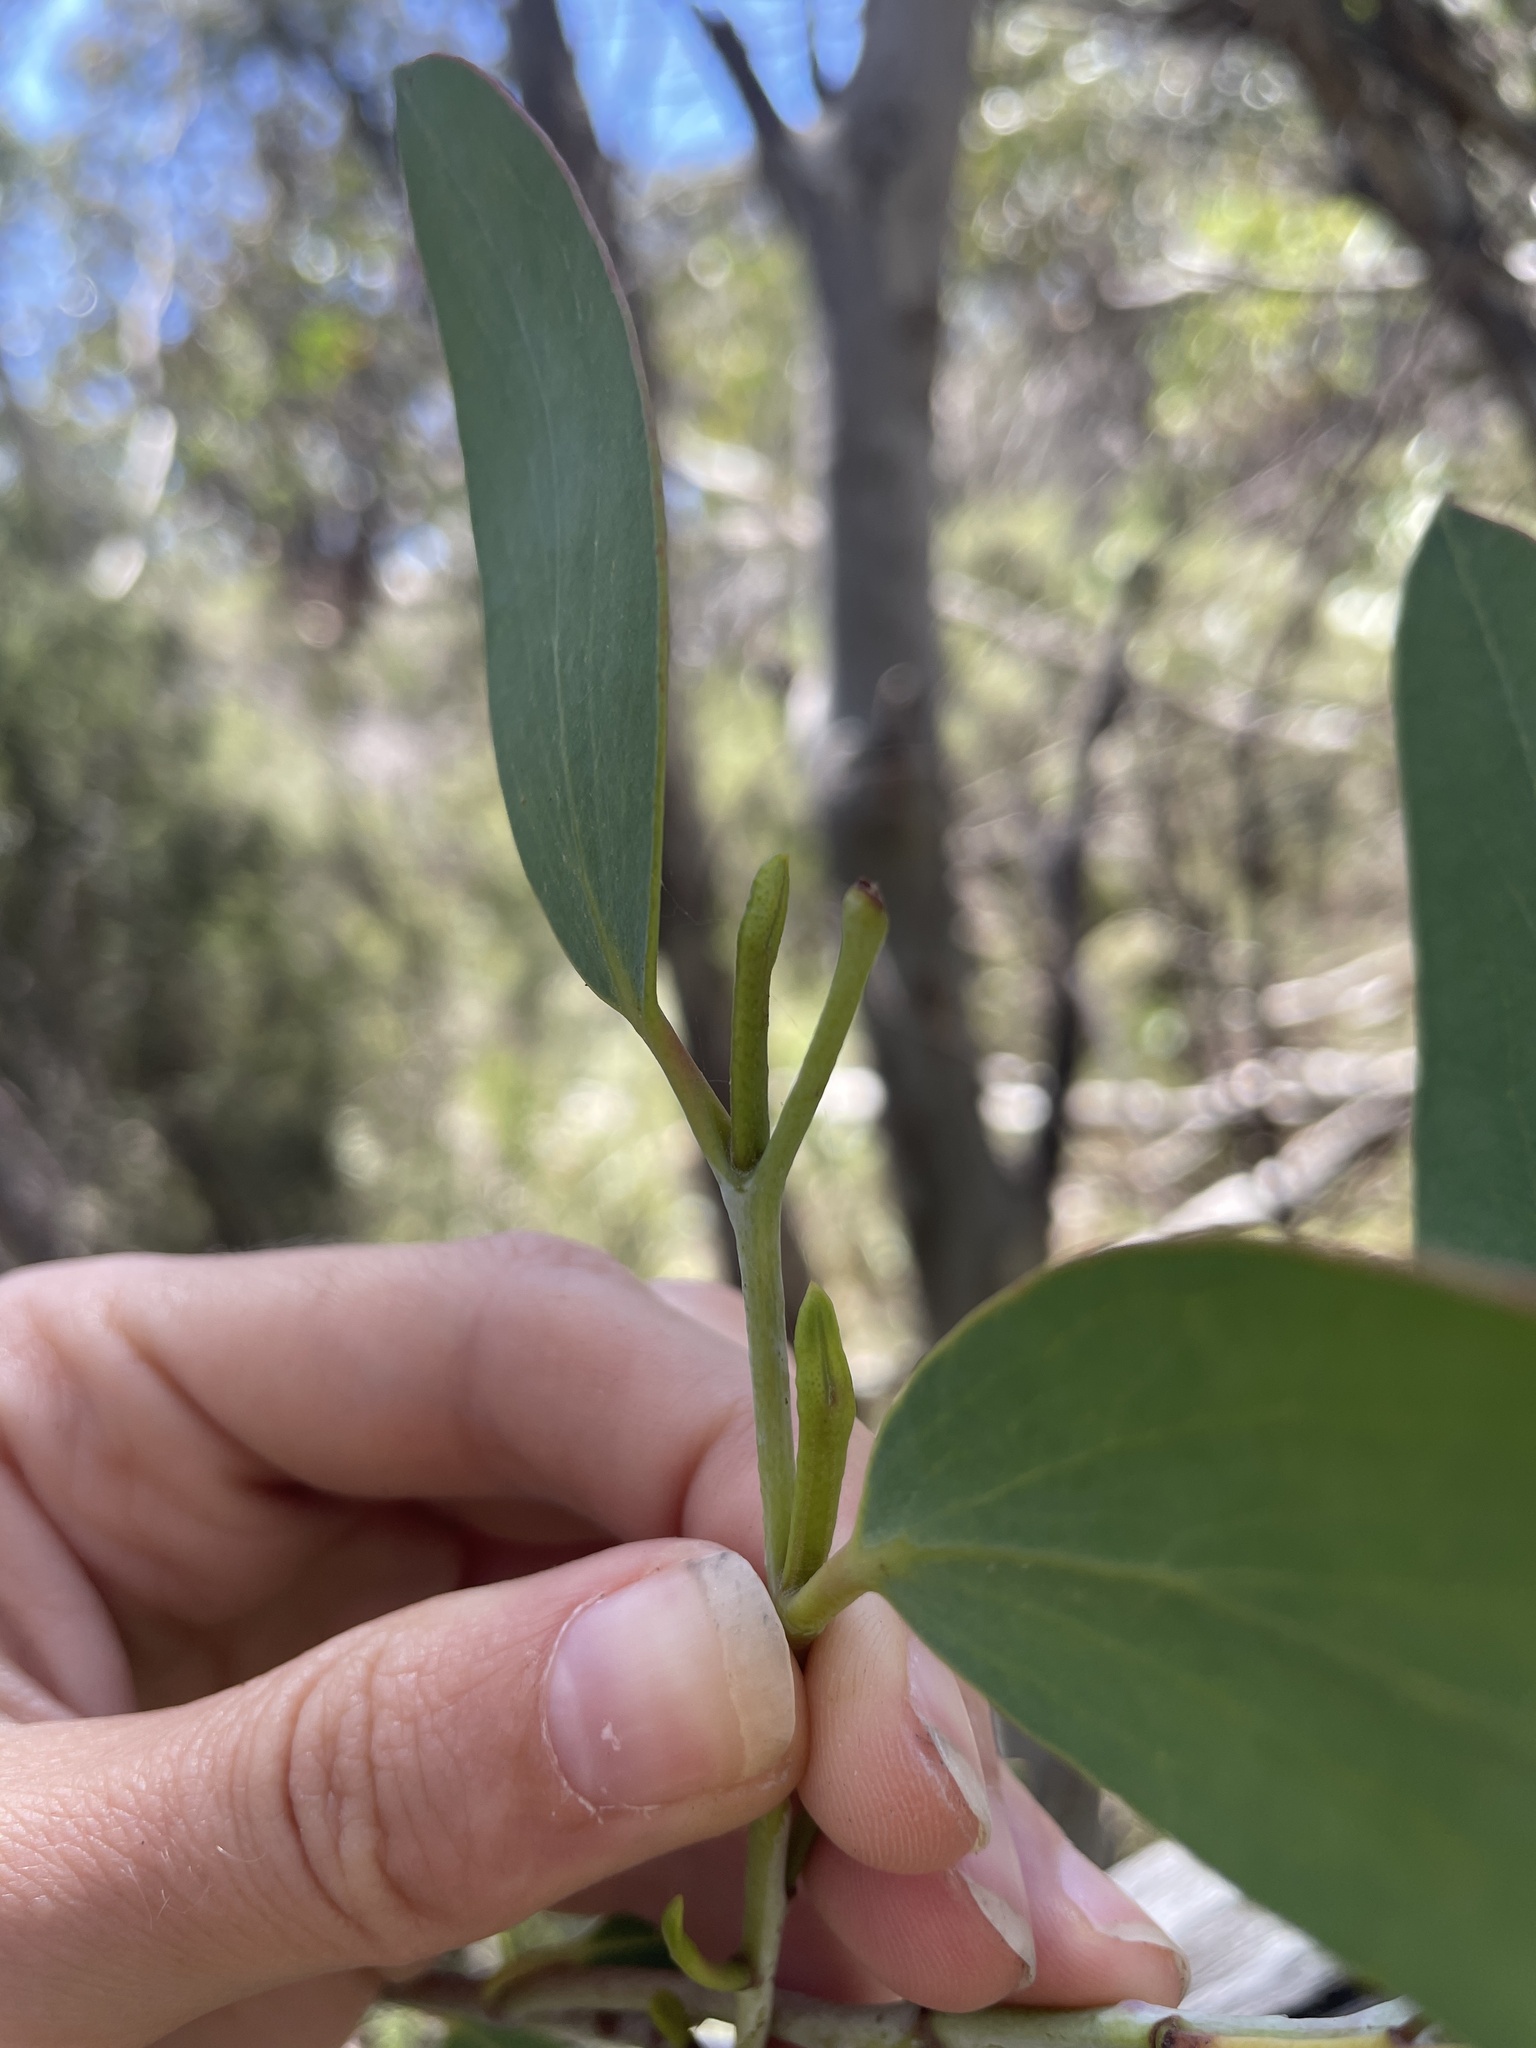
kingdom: Plantae
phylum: Tracheophyta
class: Magnoliopsida
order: Myrtales
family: Myrtaceae
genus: Eucalyptus
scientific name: Eucalyptus
